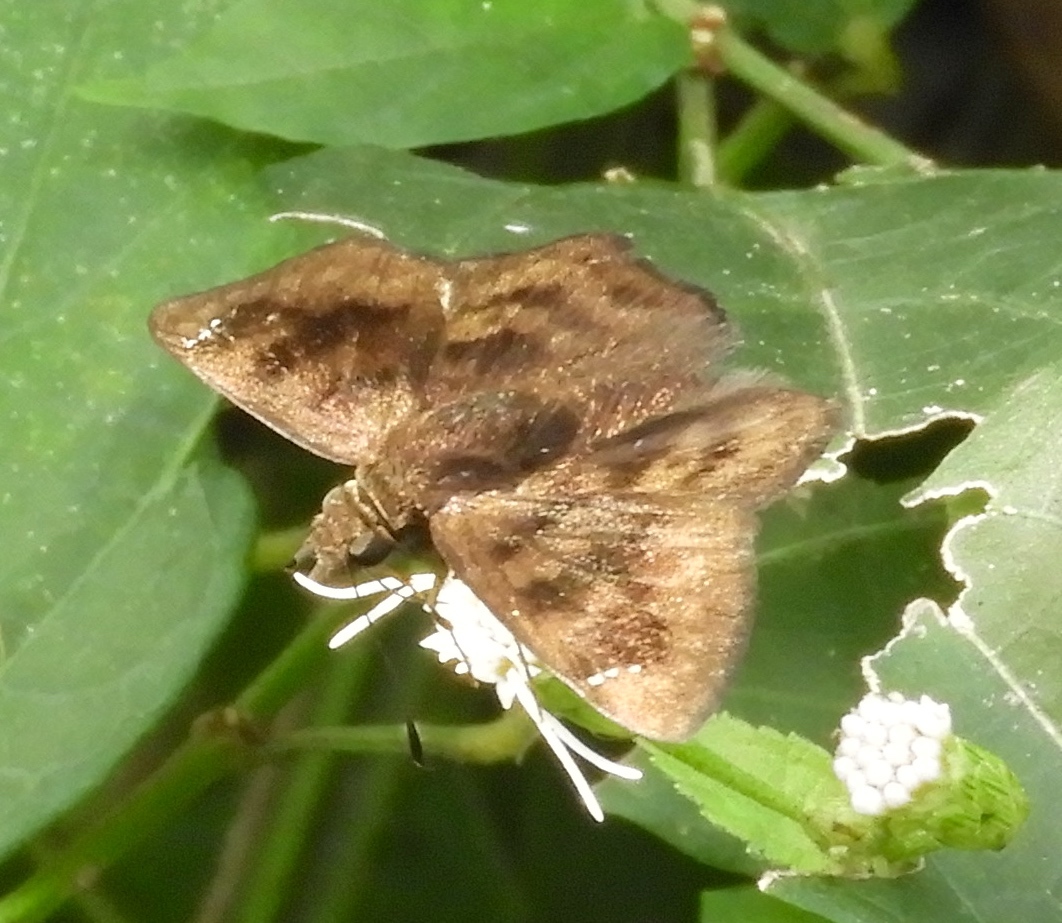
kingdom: Animalia
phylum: Arthropoda
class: Insecta
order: Lepidoptera
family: Hesperiidae
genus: Nisoniades
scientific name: Nisoniades
